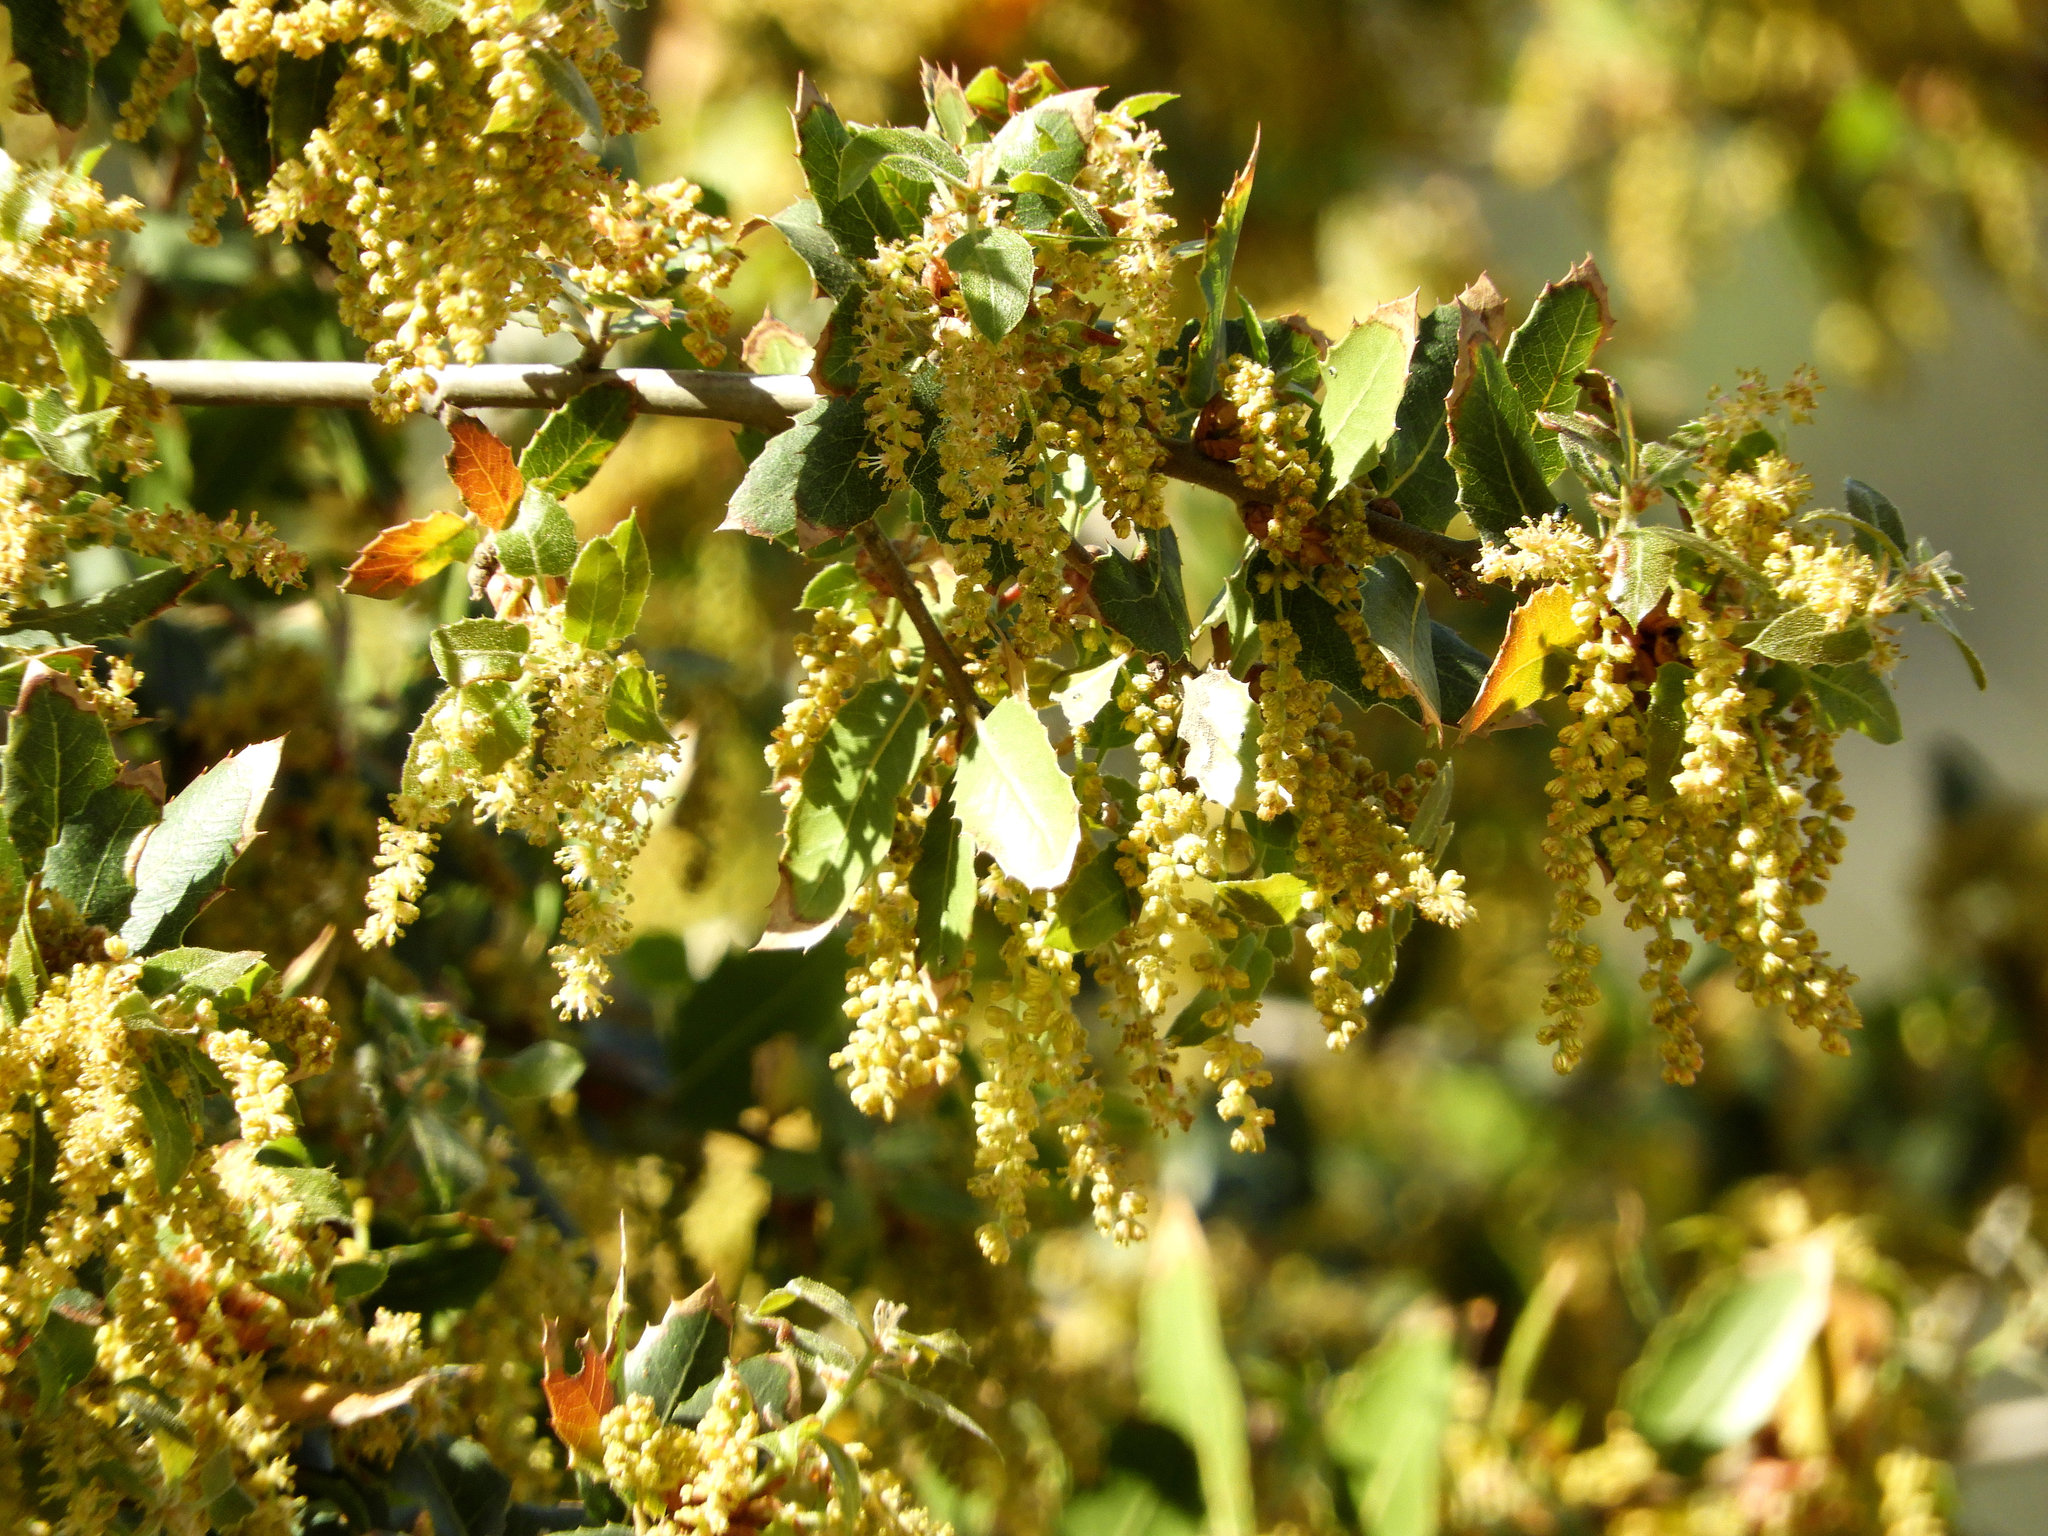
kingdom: Plantae
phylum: Tracheophyta
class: Magnoliopsida
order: Fagales
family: Fagaceae
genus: Quercus
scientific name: Quercus wislizeni
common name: Interior live oak
